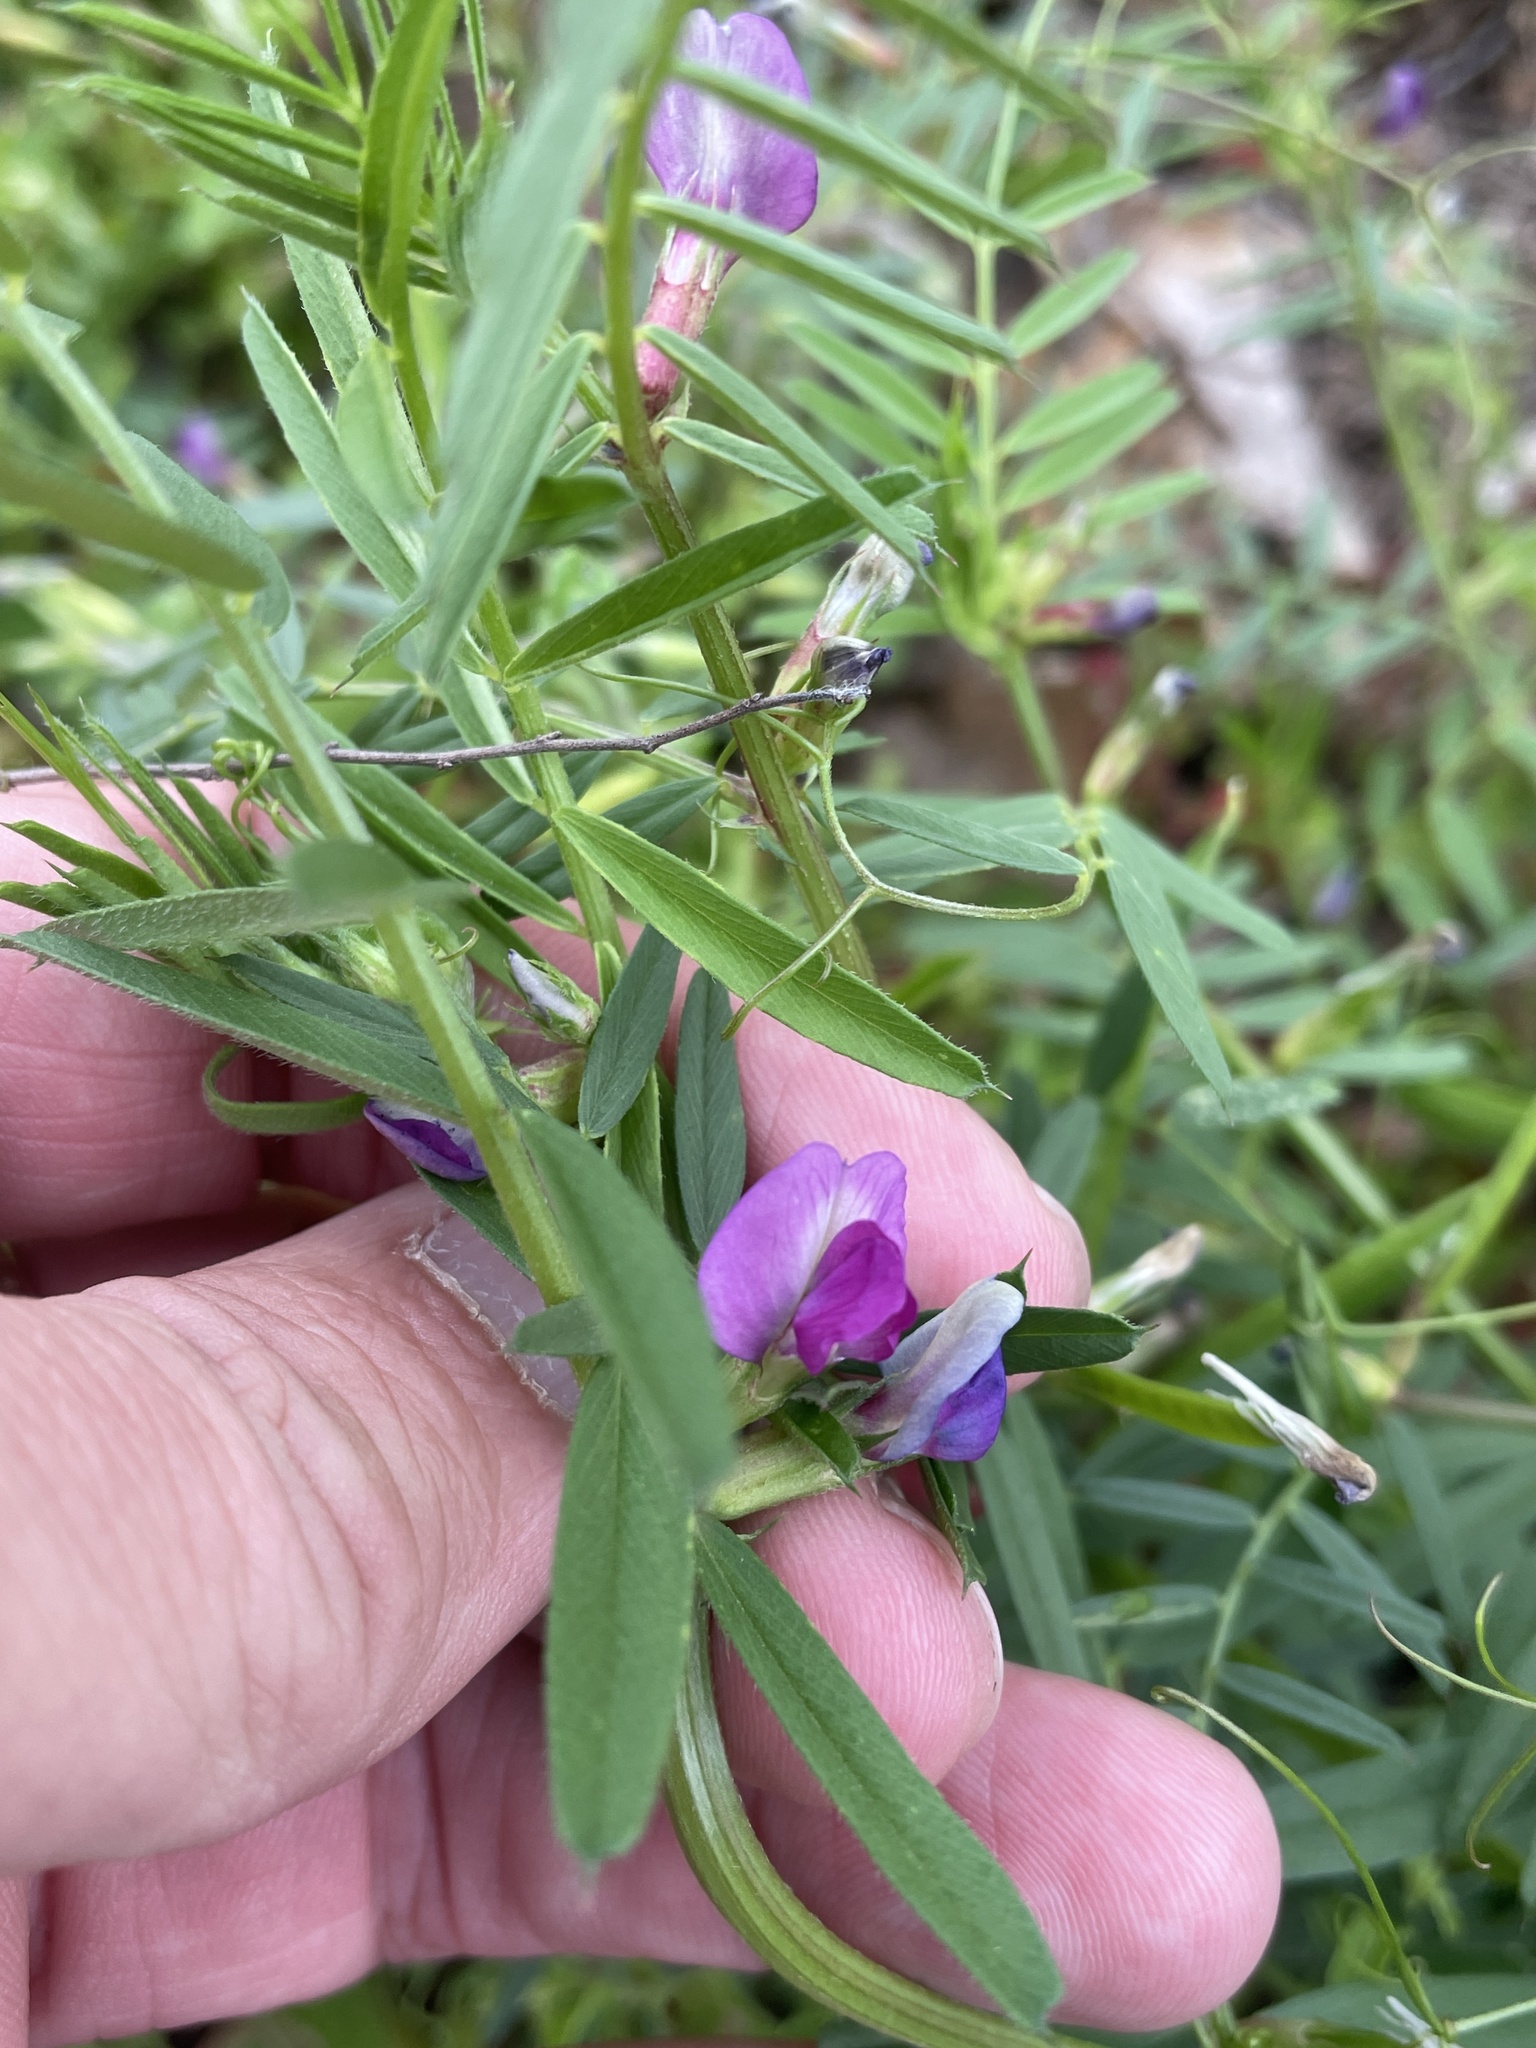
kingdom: Plantae
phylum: Tracheophyta
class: Magnoliopsida
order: Fabales
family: Fabaceae
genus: Vicia
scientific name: Vicia sativa
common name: Garden vetch
